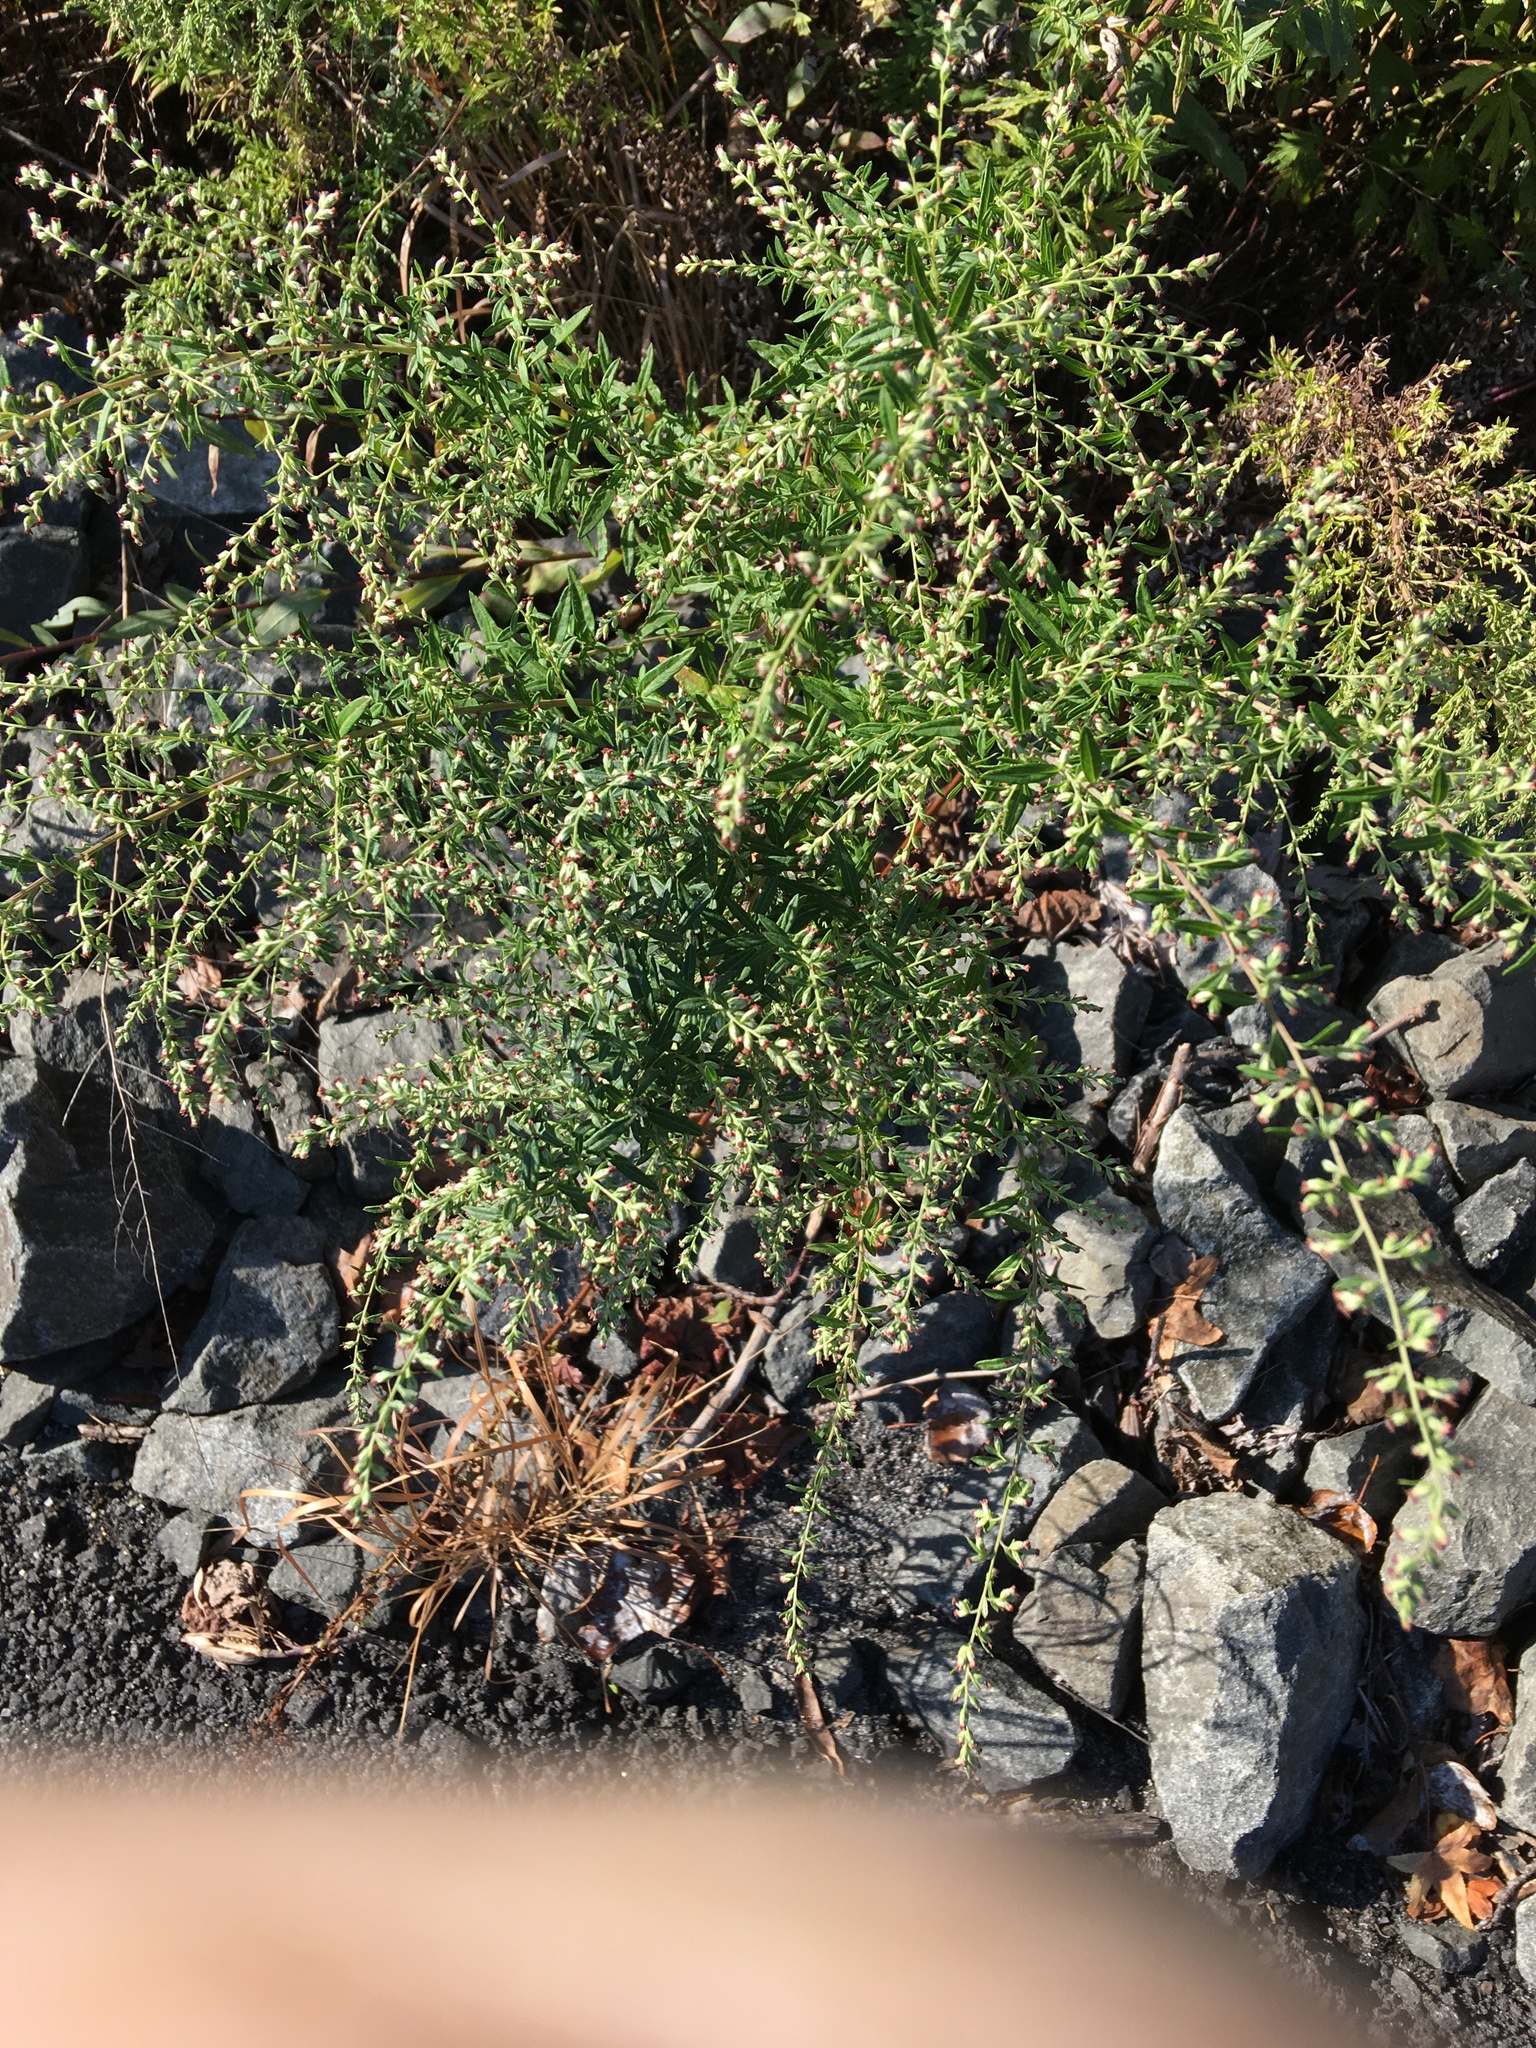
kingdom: Plantae
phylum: Tracheophyta
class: Magnoliopsida
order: Asterales
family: Asteraceae
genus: Artemisia
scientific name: Artemisia vulgaris
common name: Mugwort
